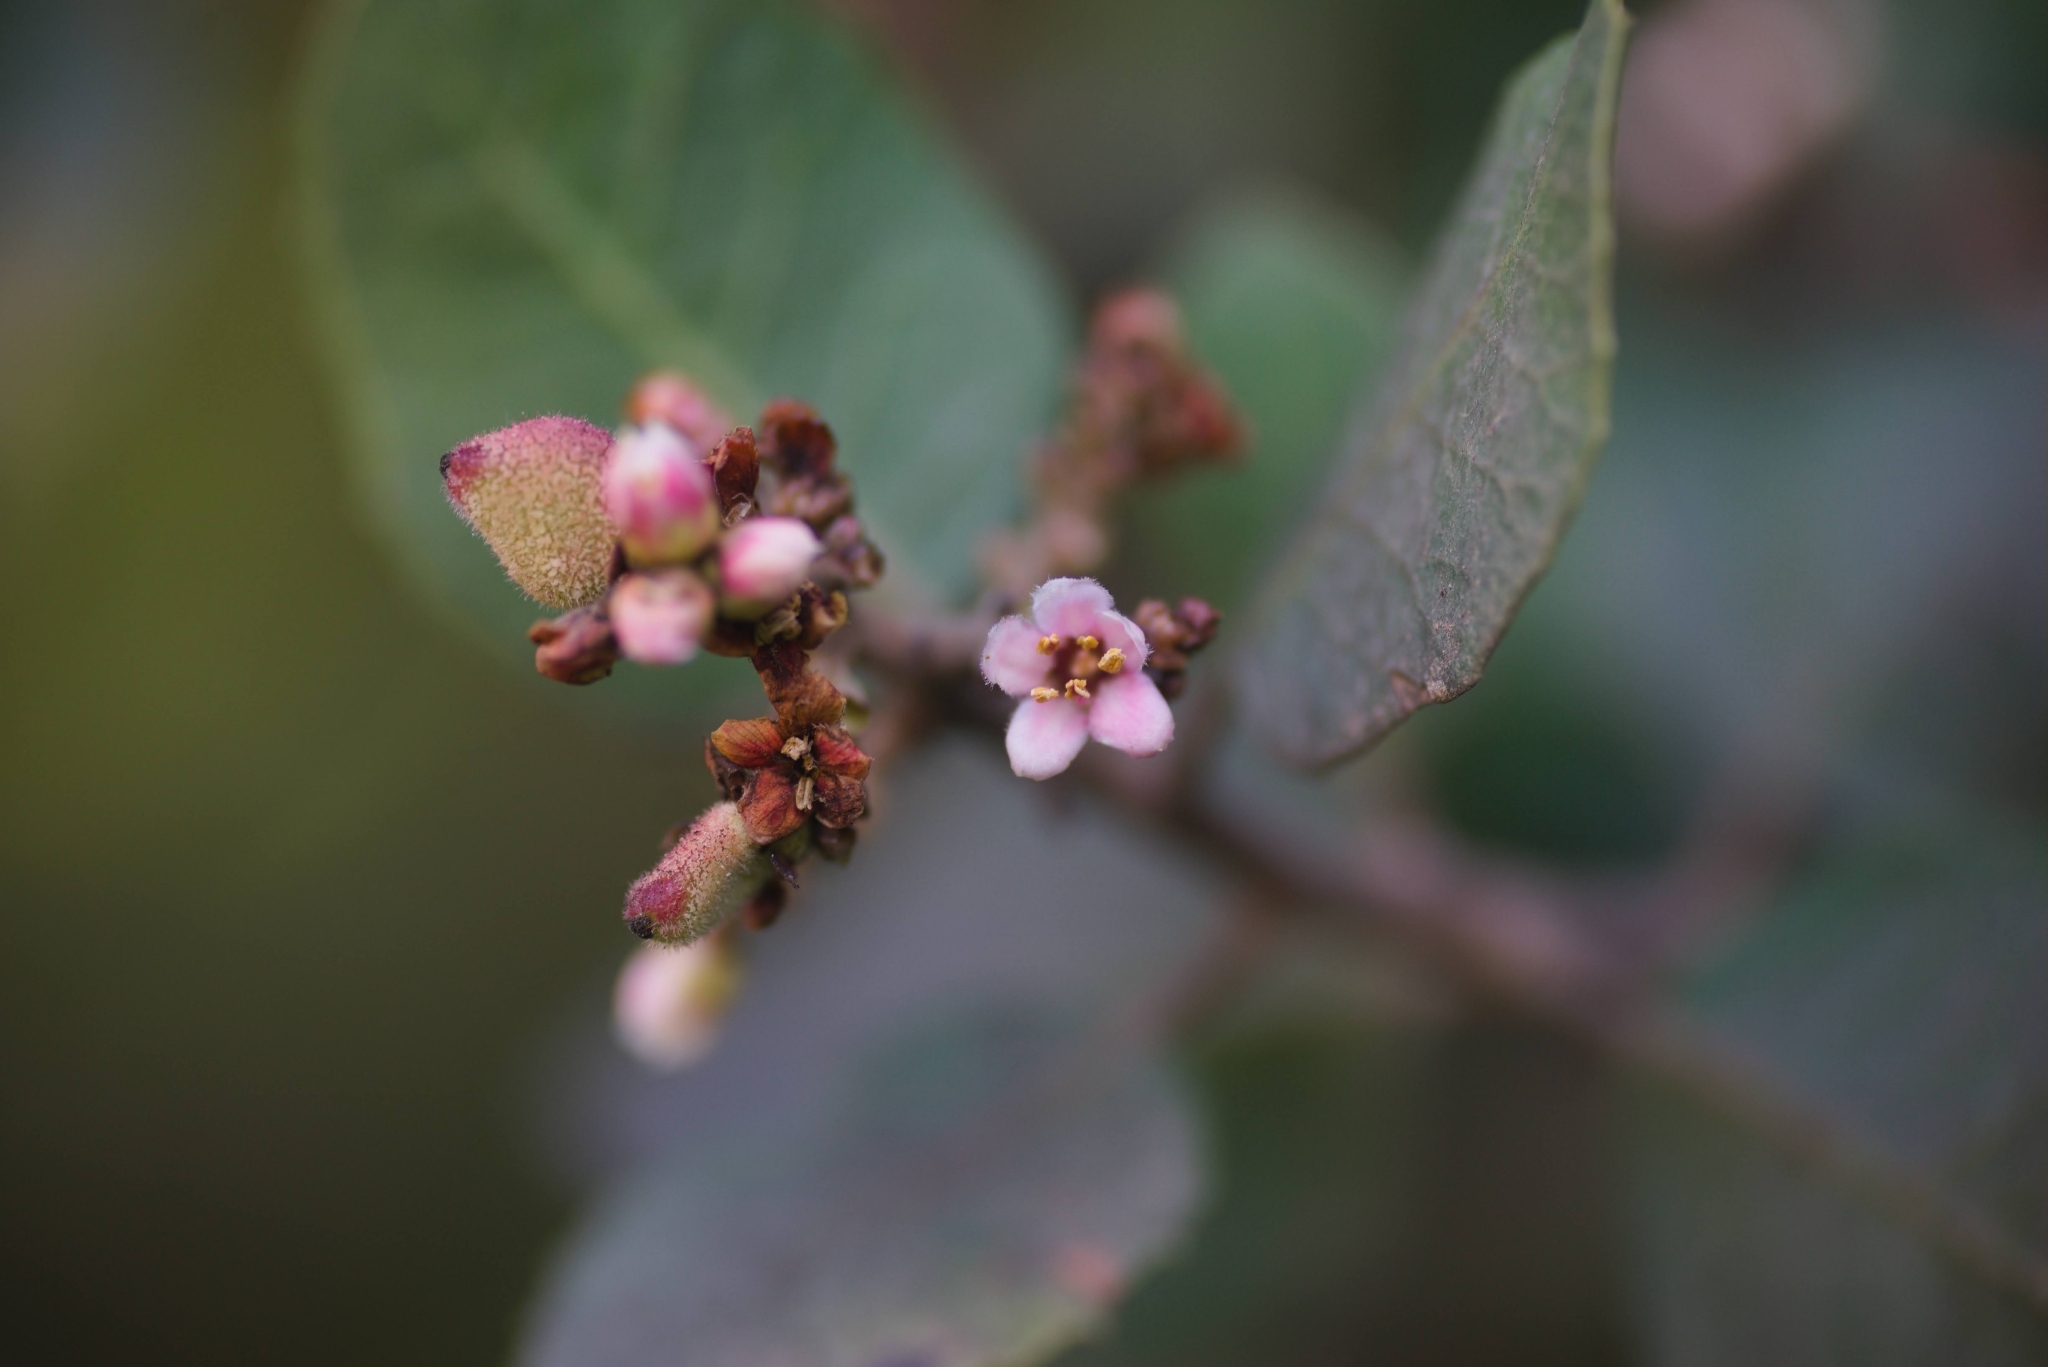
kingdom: Plantae
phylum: Tracheophyta
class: Magnoliopsida
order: Sapindales
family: Anacardiaceae
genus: Rhus
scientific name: Rhus integrifolia
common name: Lemonade sumac
